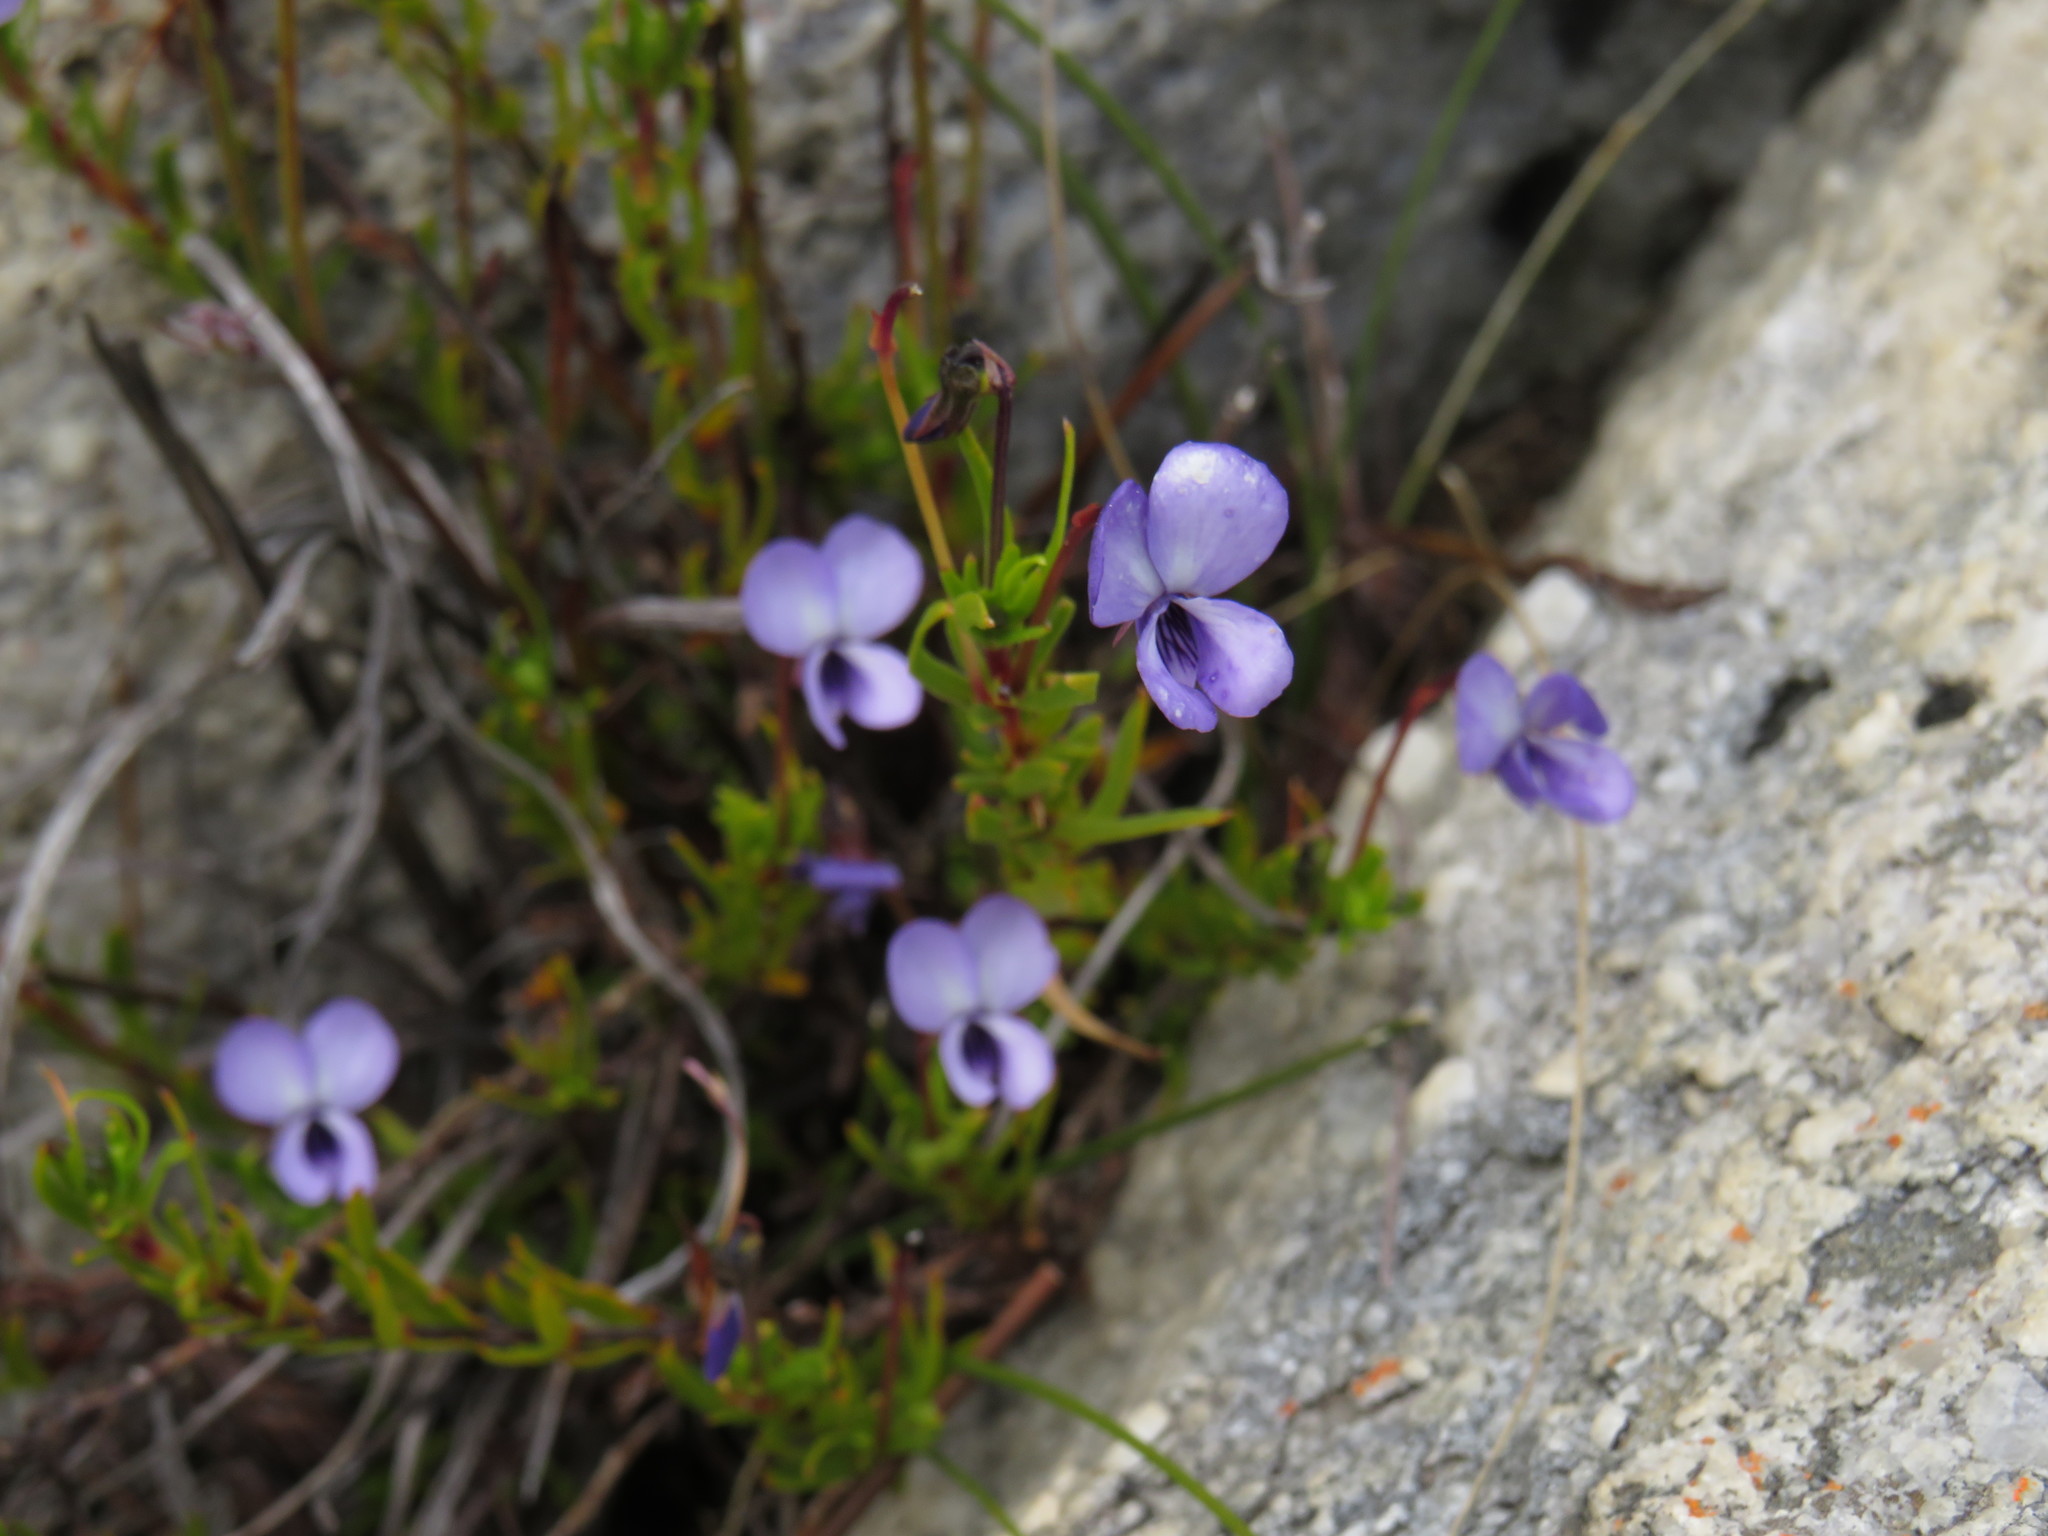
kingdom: Plantae
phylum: Tracheophyta
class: Magnoliopsida
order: Malpighiales
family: Violaceae
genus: Viola
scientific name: Viola decumbens
